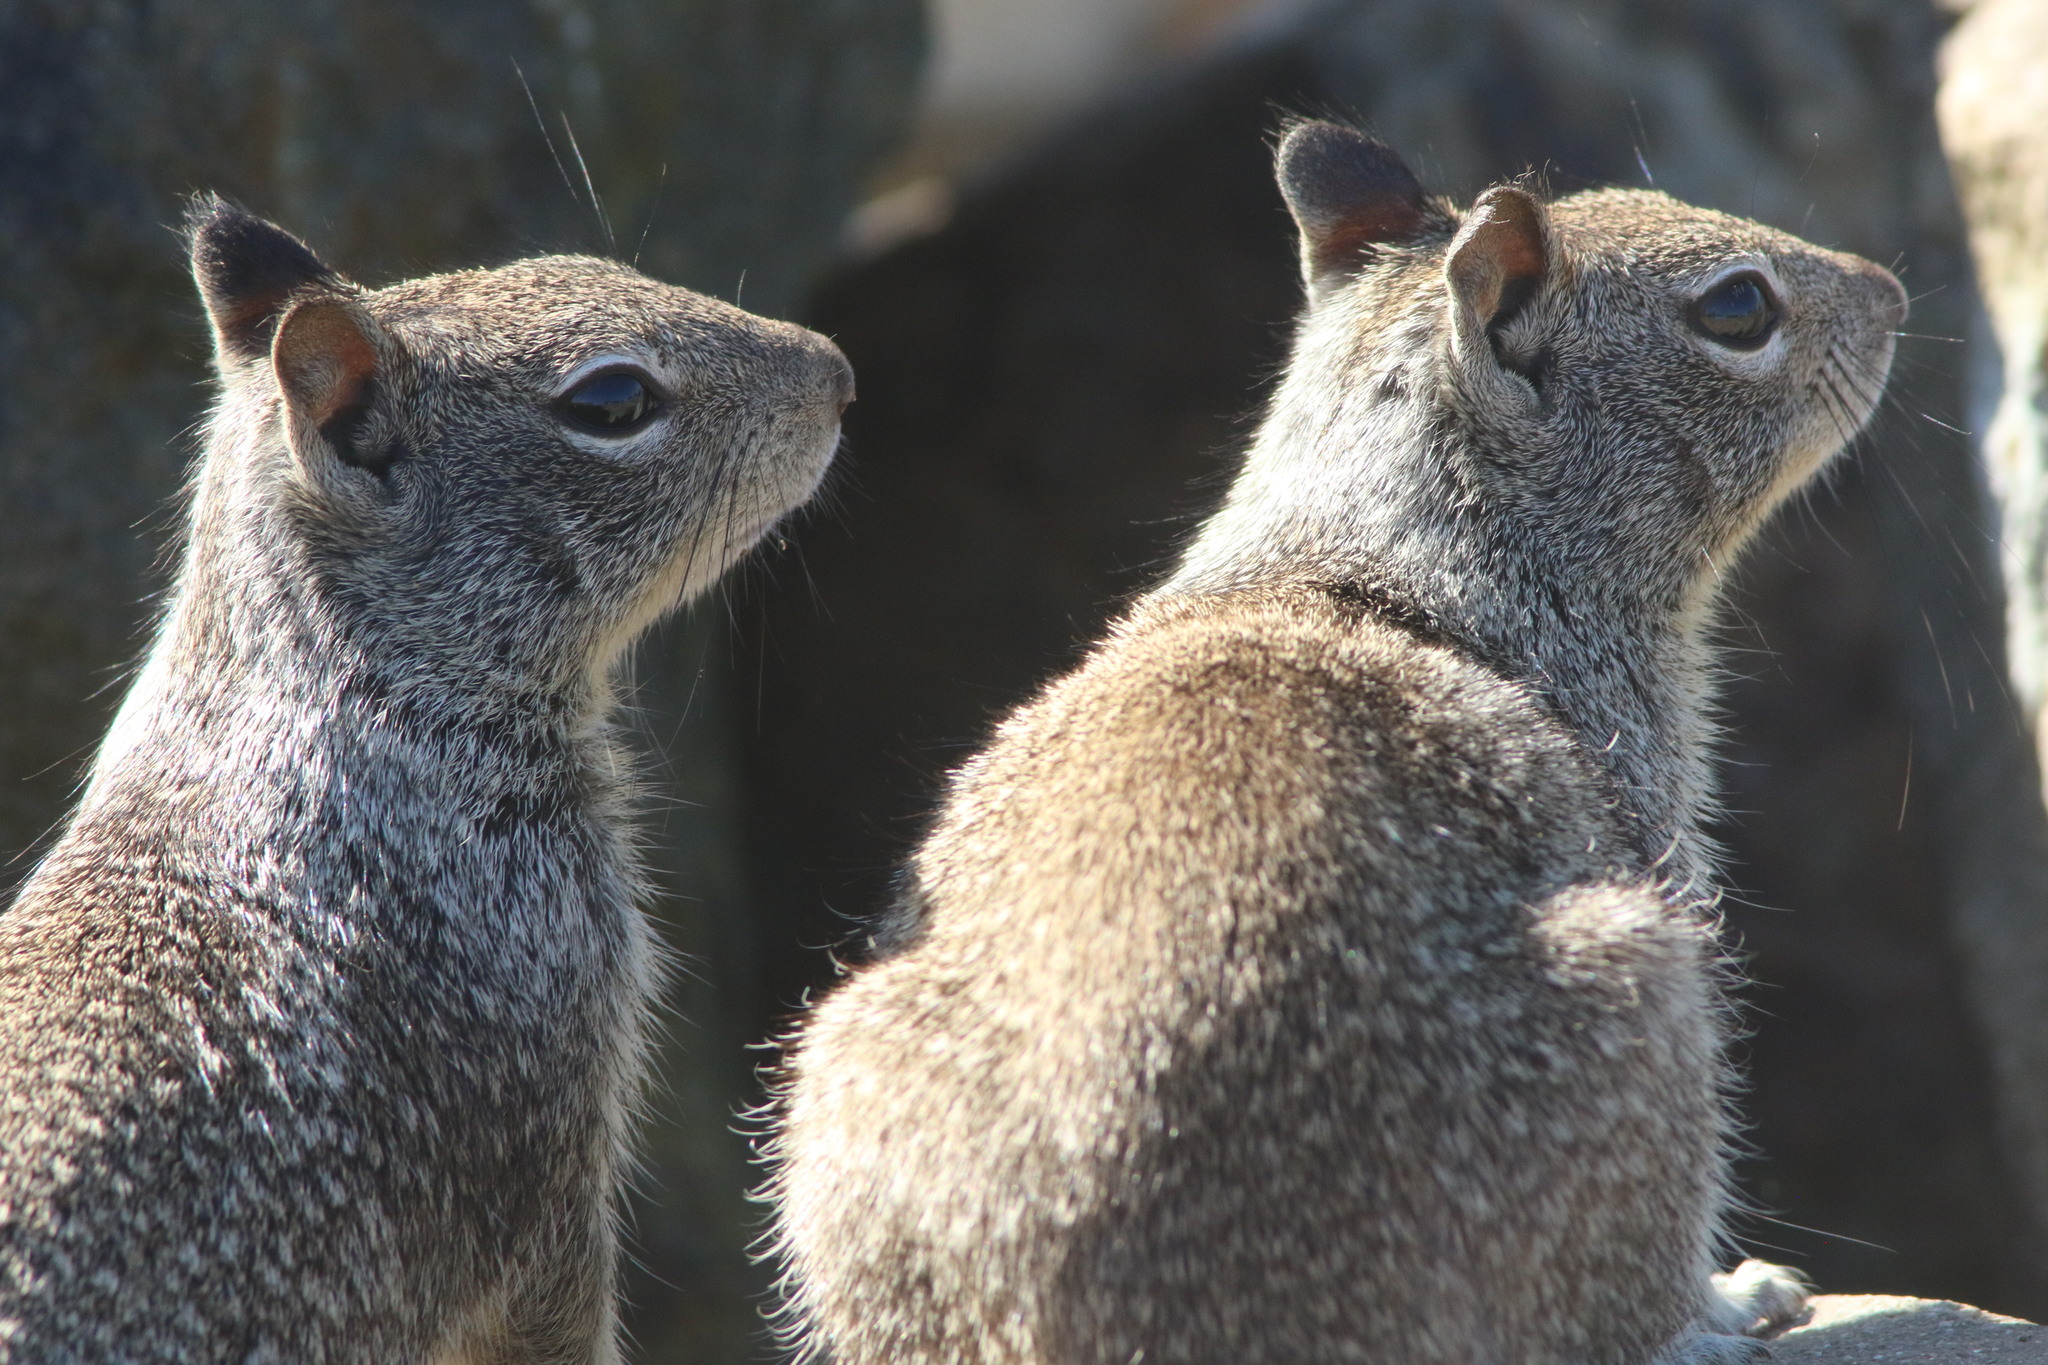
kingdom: Animalia
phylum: Chordata
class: Mammalia
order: Rodentia
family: Sciuridae
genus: Otospermophilus
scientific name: Otospermophilus beecheyi
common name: California ground squirrel
